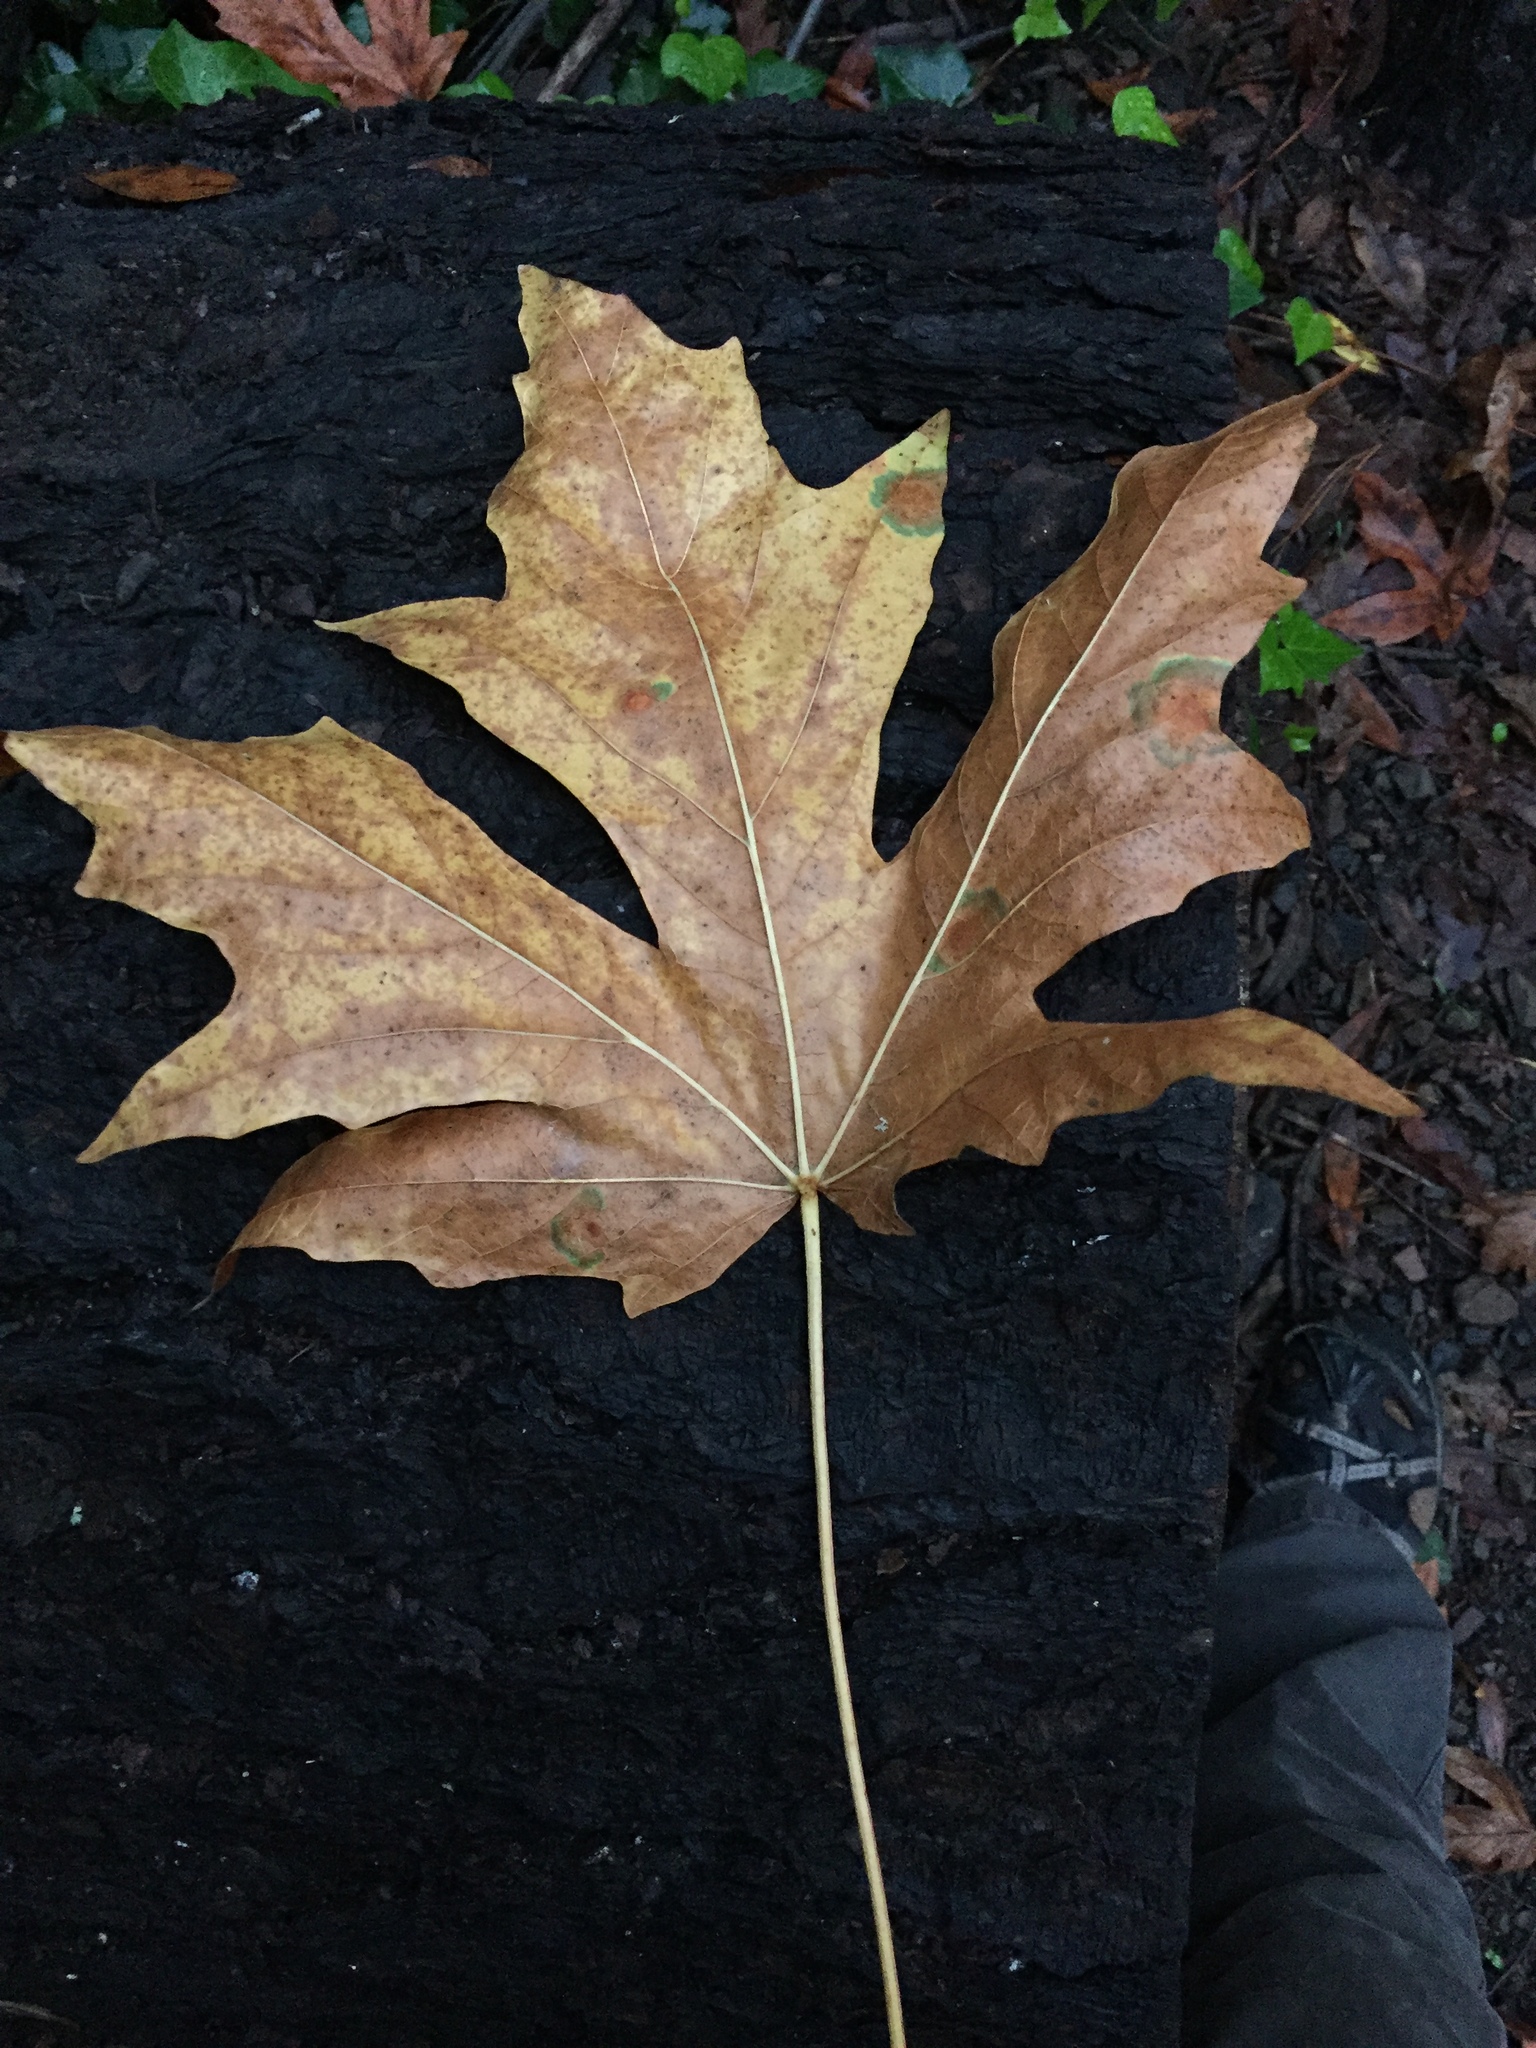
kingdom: Plantae
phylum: Tracheophyta
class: Magnoliopsida
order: Sapindales
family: Sapindaceae
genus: Acer
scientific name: Acer macrophyllum
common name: Oregon maple
